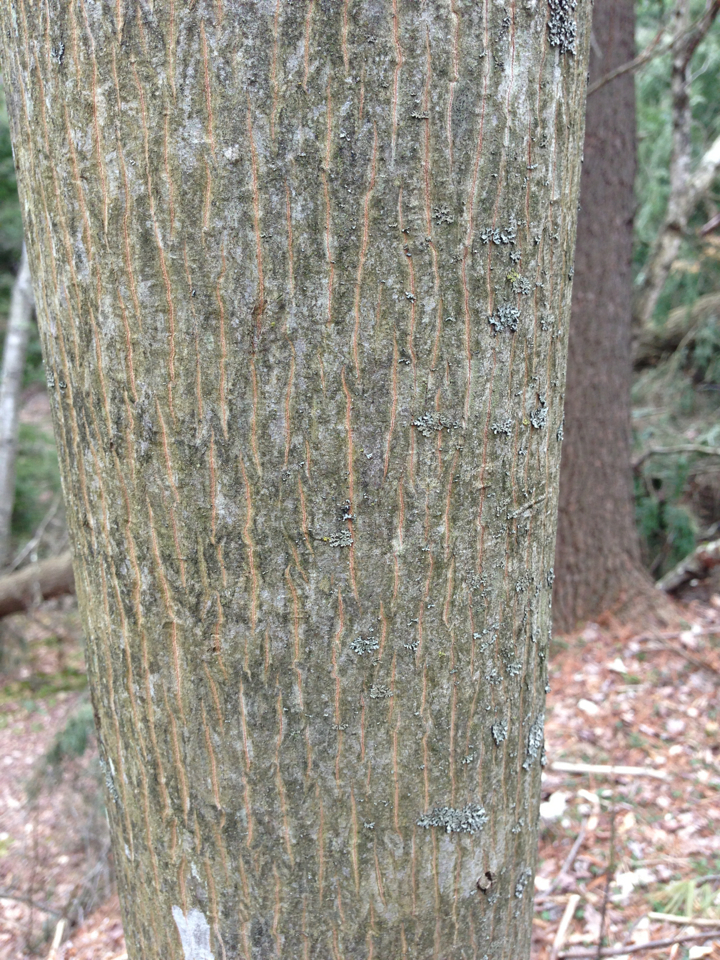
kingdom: Plantae
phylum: Tracheophyta
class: Magnoliopsida
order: Fagales
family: Juglandaceae
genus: Carya
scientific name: Carya cordiformis
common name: Bitternut hickory
